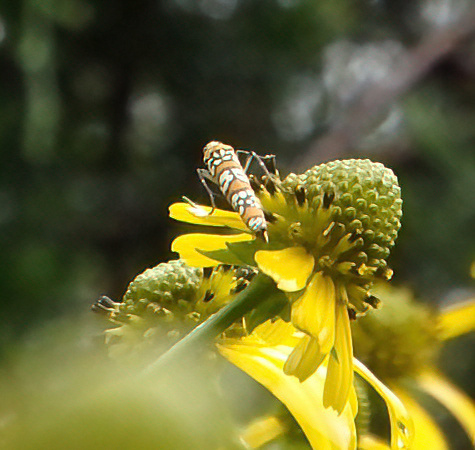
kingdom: Animalia
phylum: Arthropoda
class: Insecta
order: Lepidoptera
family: Attevidae
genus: Atteva
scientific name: Atteva punctella
